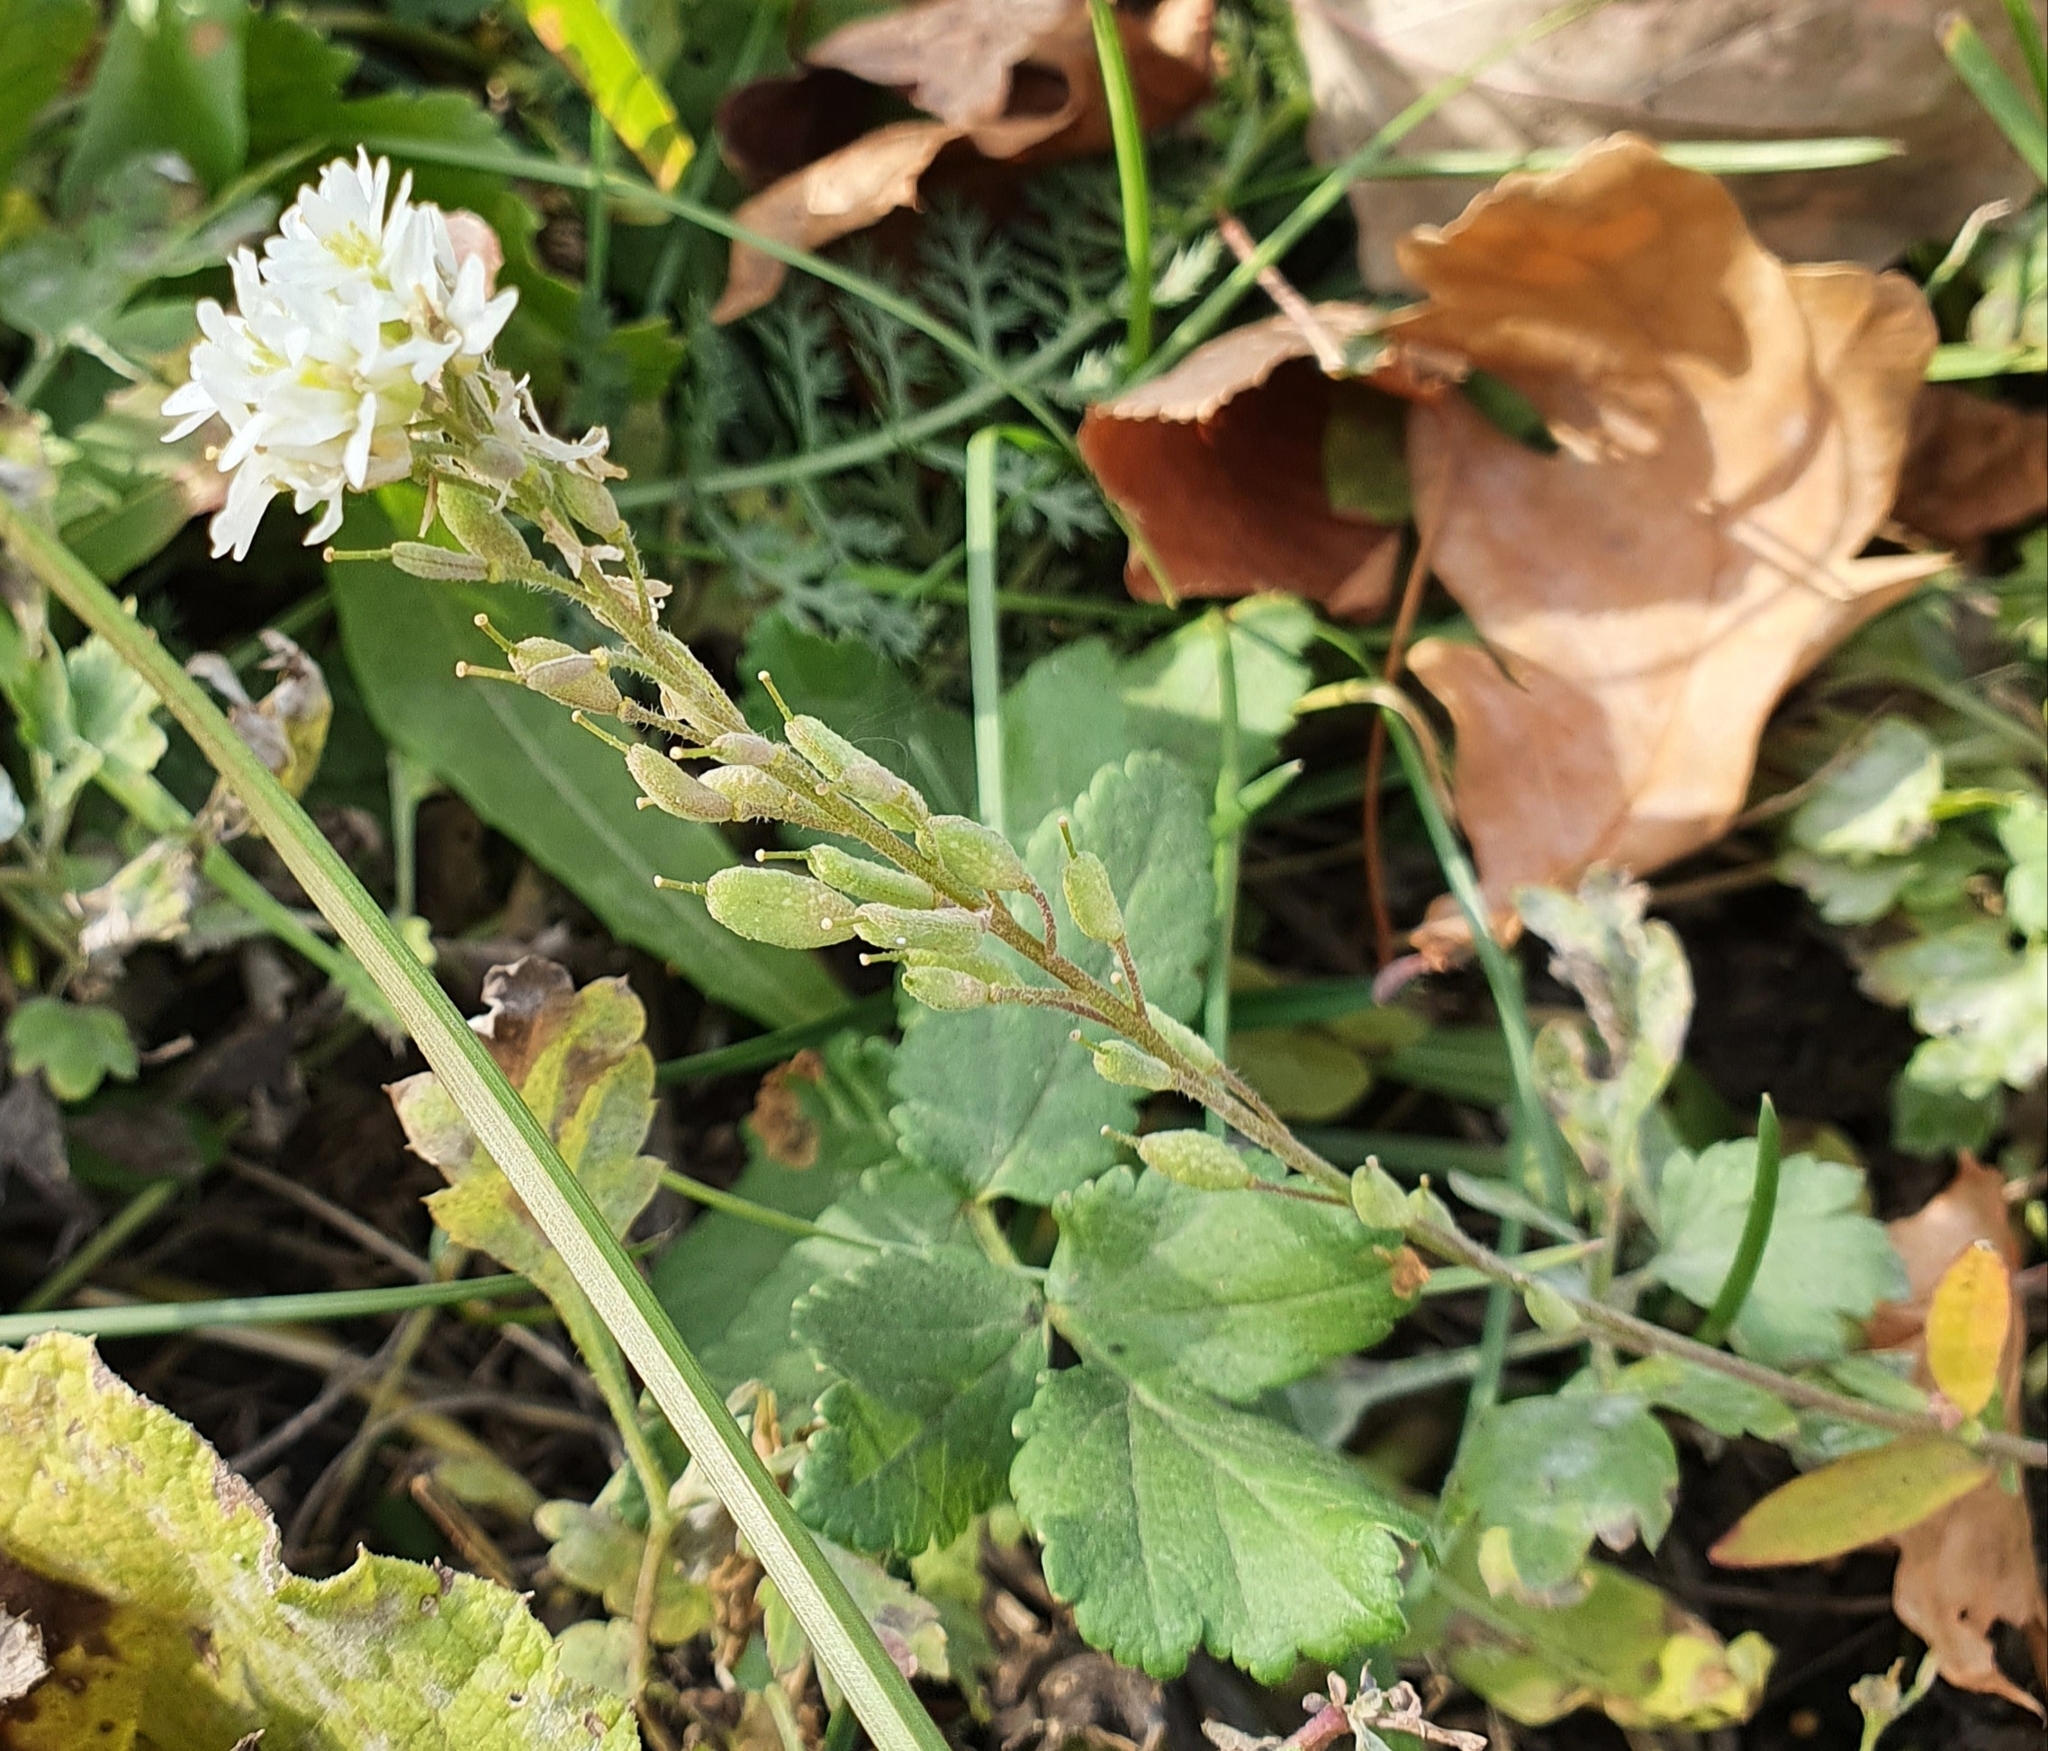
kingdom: Plantae
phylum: Tracheophyta
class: Magnoliopsida
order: Brassicales
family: Brassicaceae
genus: Berteroa
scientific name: Berteroa incana
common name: Hoary alison
